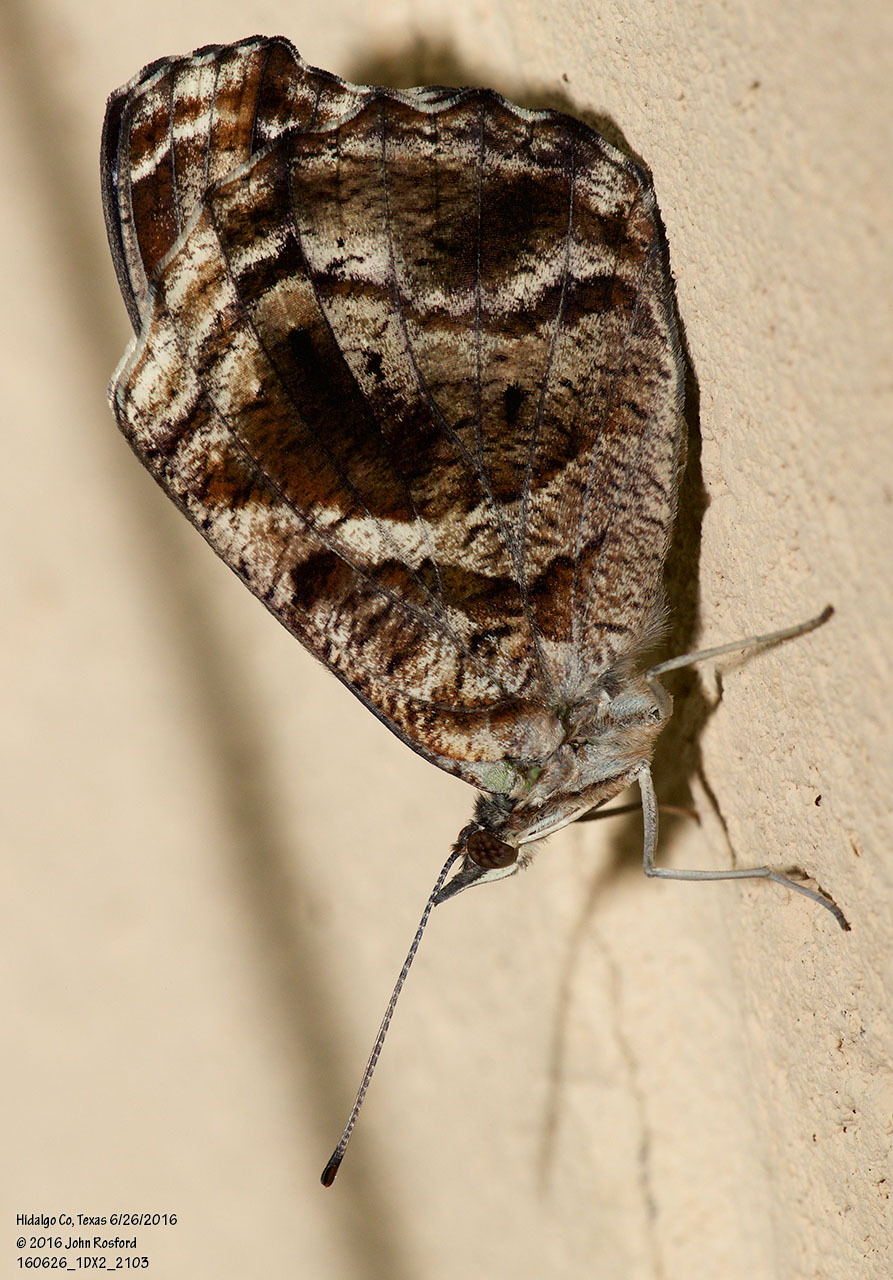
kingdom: Animalia
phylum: Arthropoda
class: Insecta
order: Lepidoptera
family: Nymphalidae
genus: Myscelia
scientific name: Myscelia ethusa
